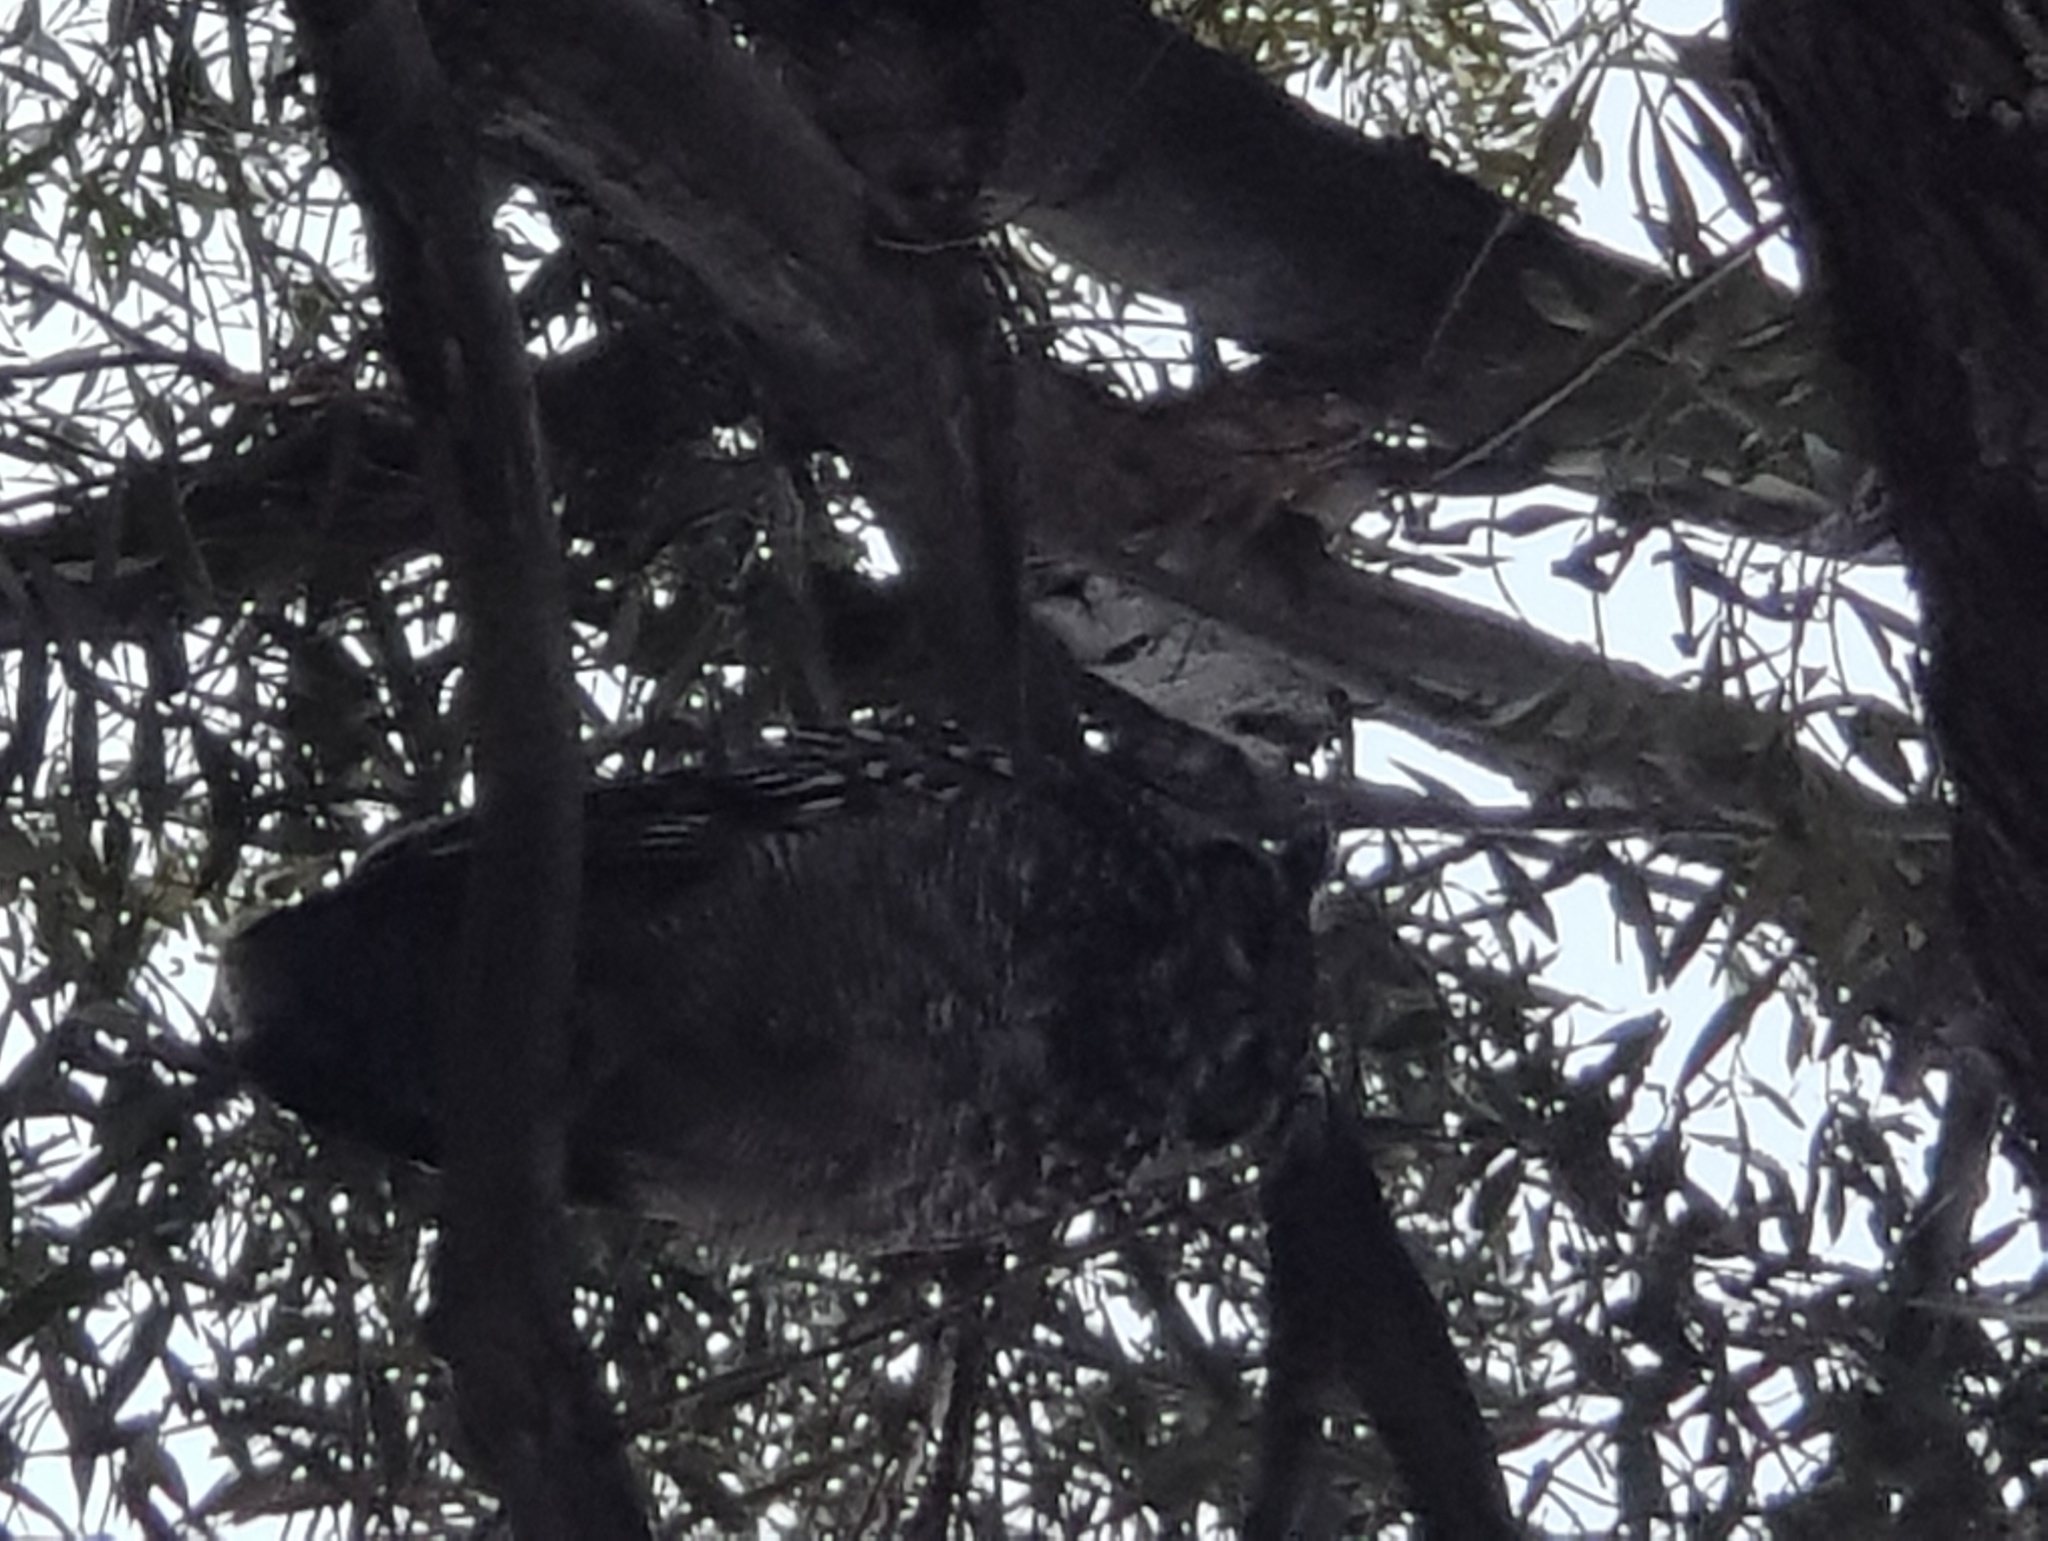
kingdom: Animalia
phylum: Chordata
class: Aves
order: Strigiformes
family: Strigidae
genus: Bubo
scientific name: Bubo africanus
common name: Spotted eagle-owl
